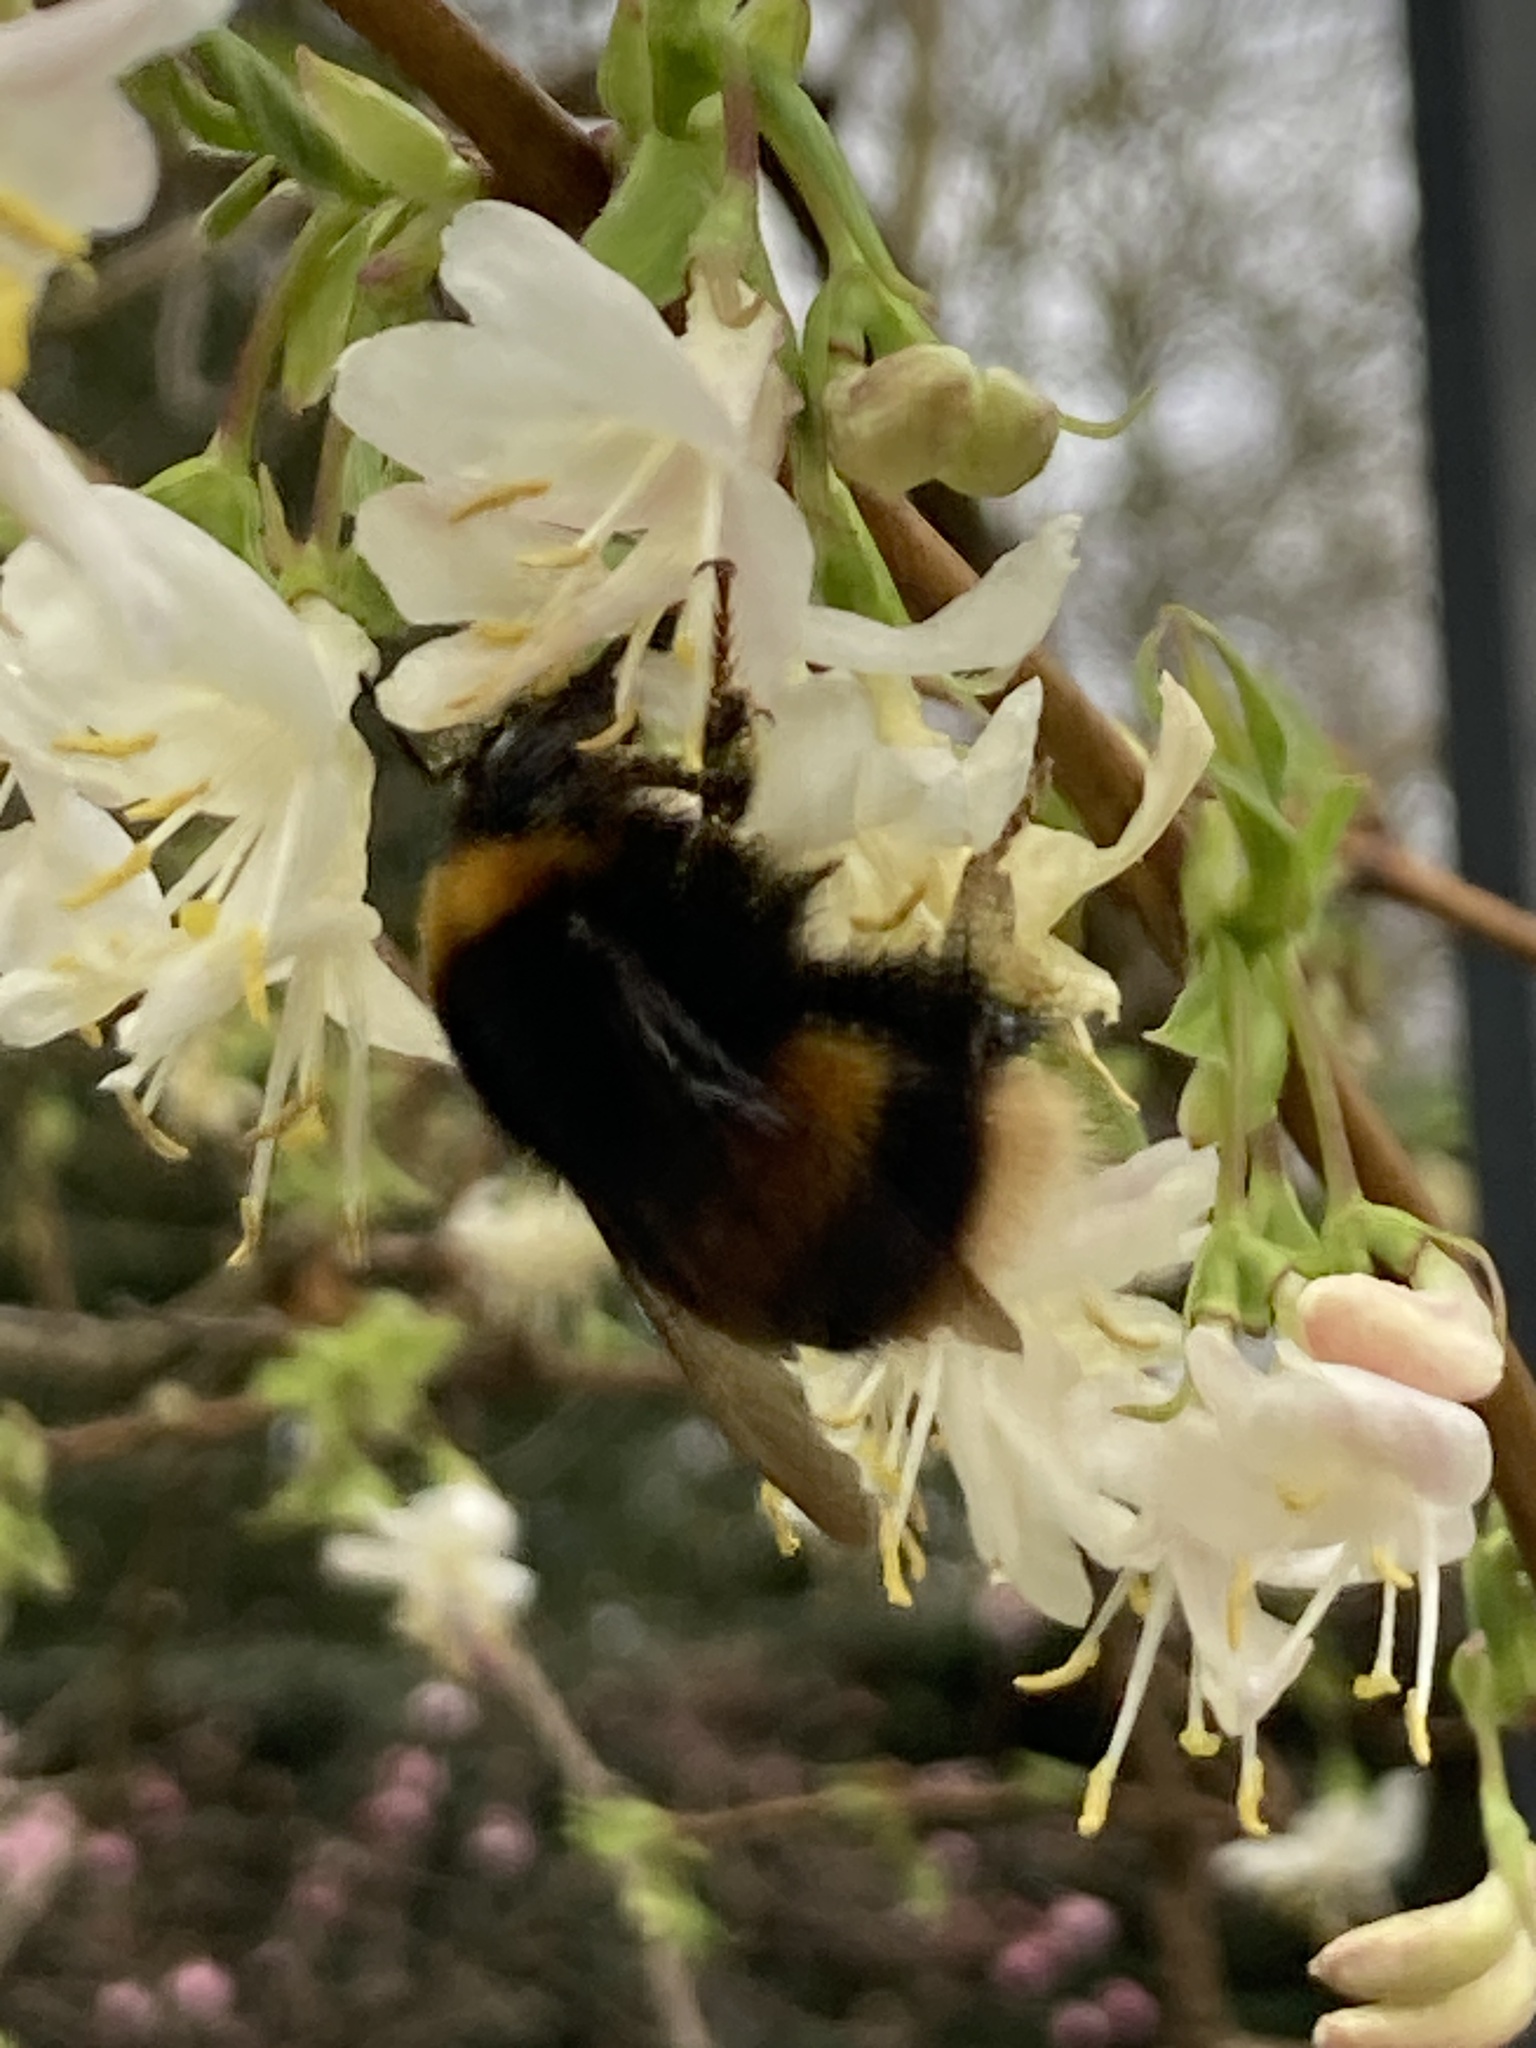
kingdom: Animalia
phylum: Arthropoda
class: Insecta
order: Hymenoptera
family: Apidae
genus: Bombus
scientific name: Bombus terrestris
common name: Buff-tailed bumblebee
